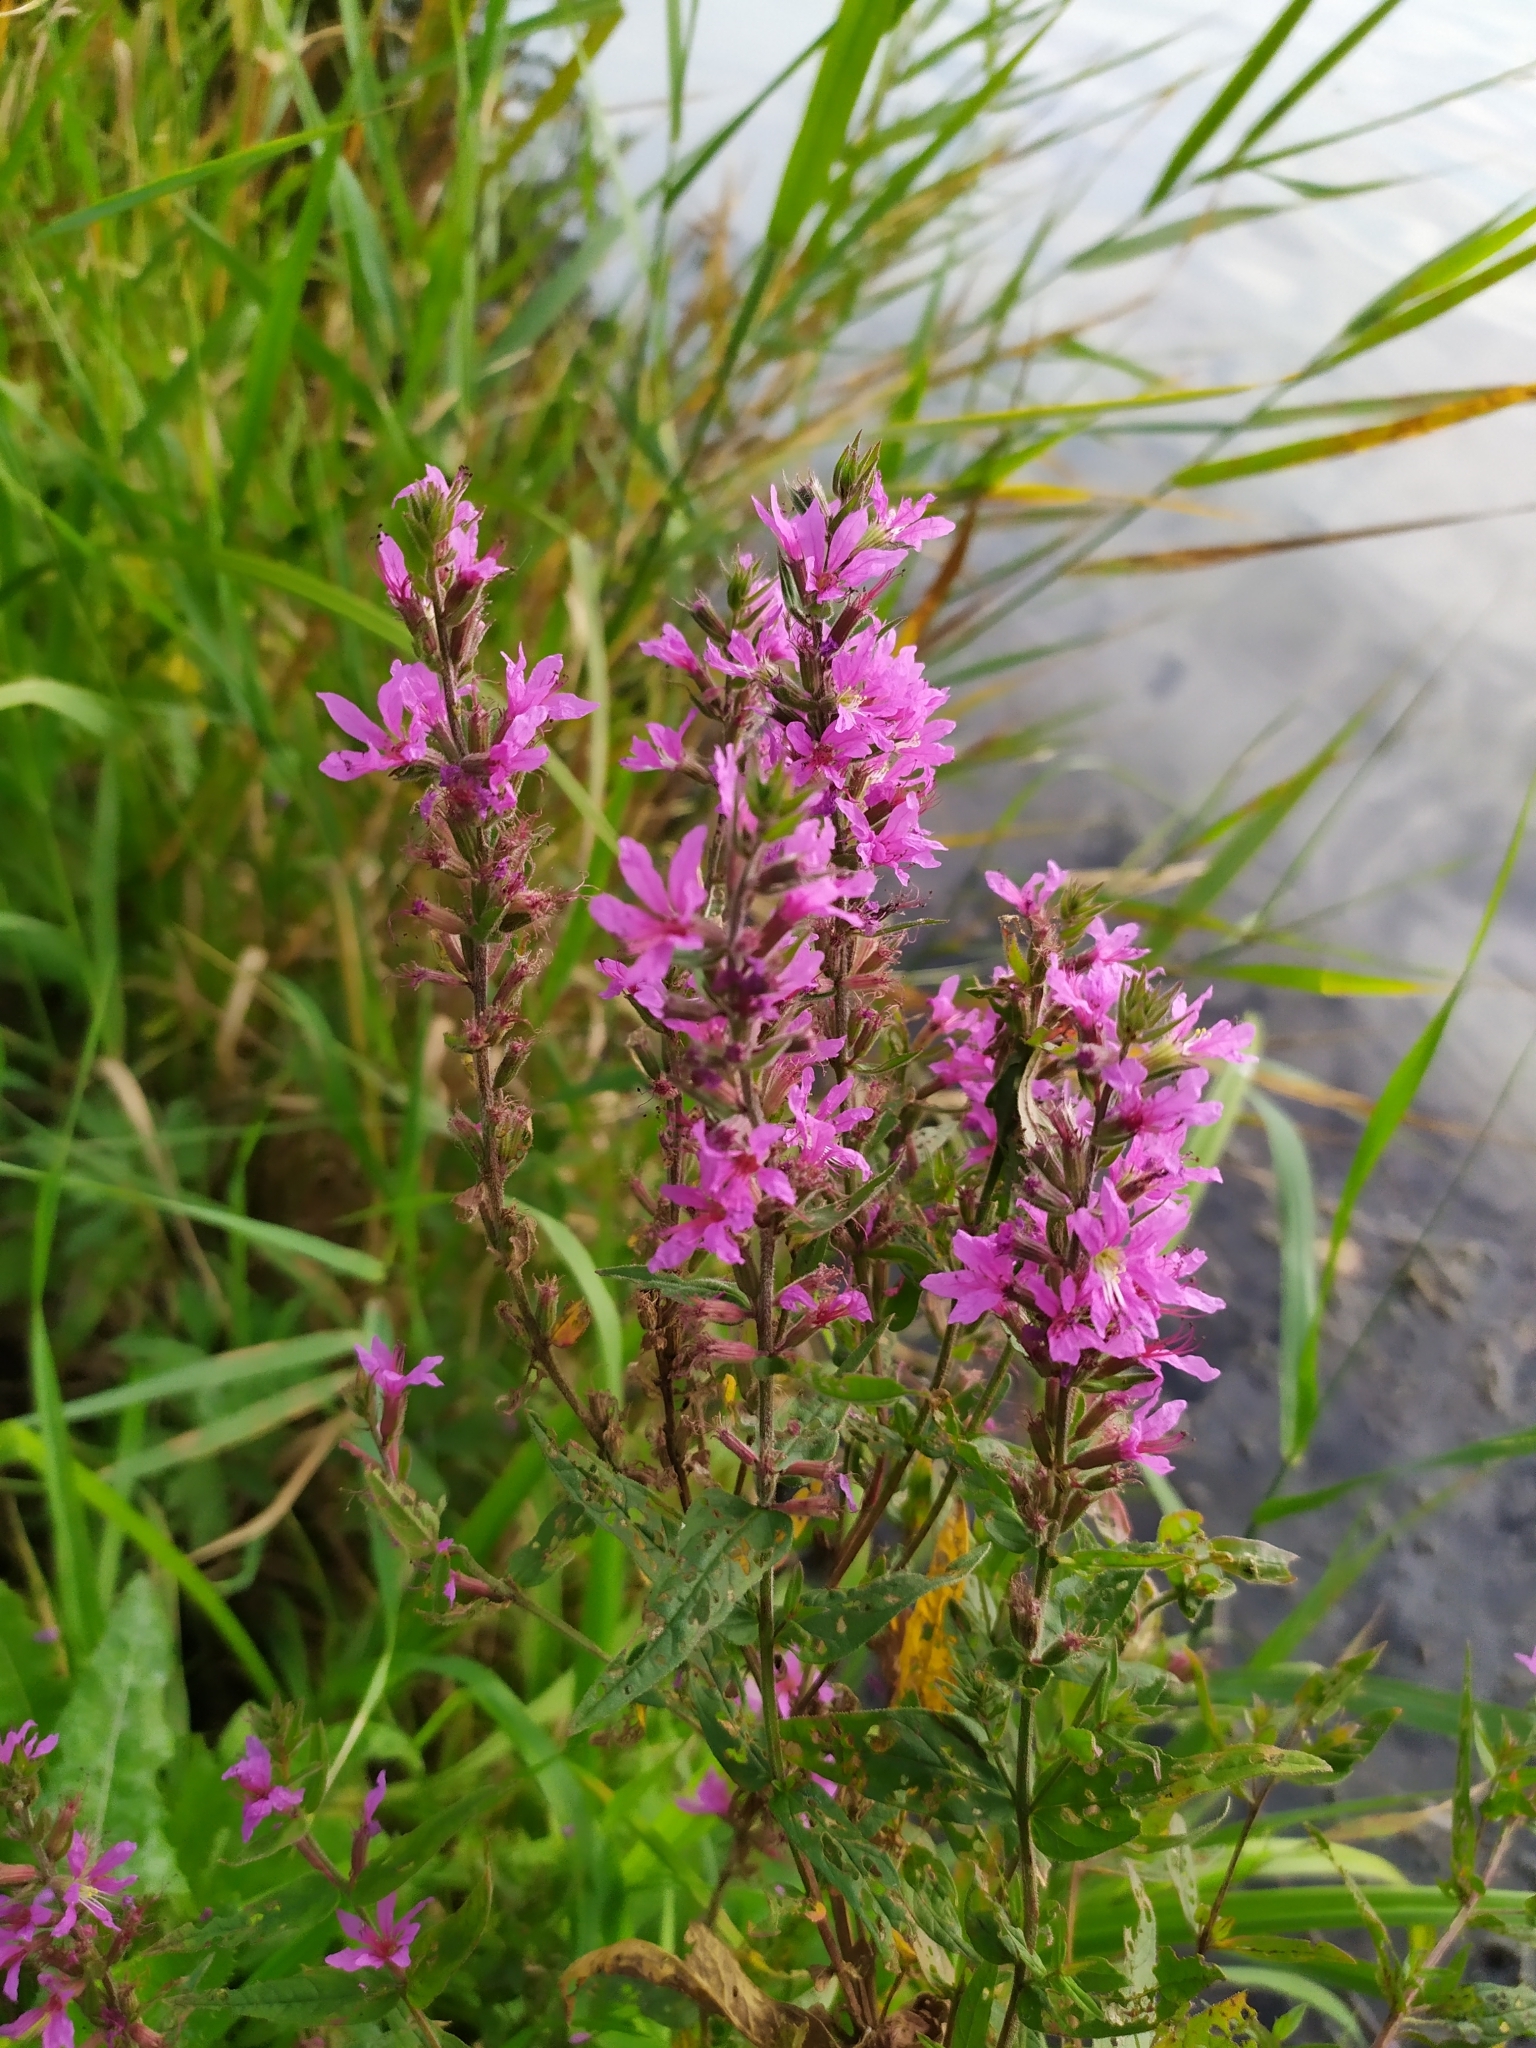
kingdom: Plantae
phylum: Tracheophyta
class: Magnoliopsida
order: Myrtales
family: Lythraceae
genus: Lythrum
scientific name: Lythrum salicaria
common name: Purple loosestrife
